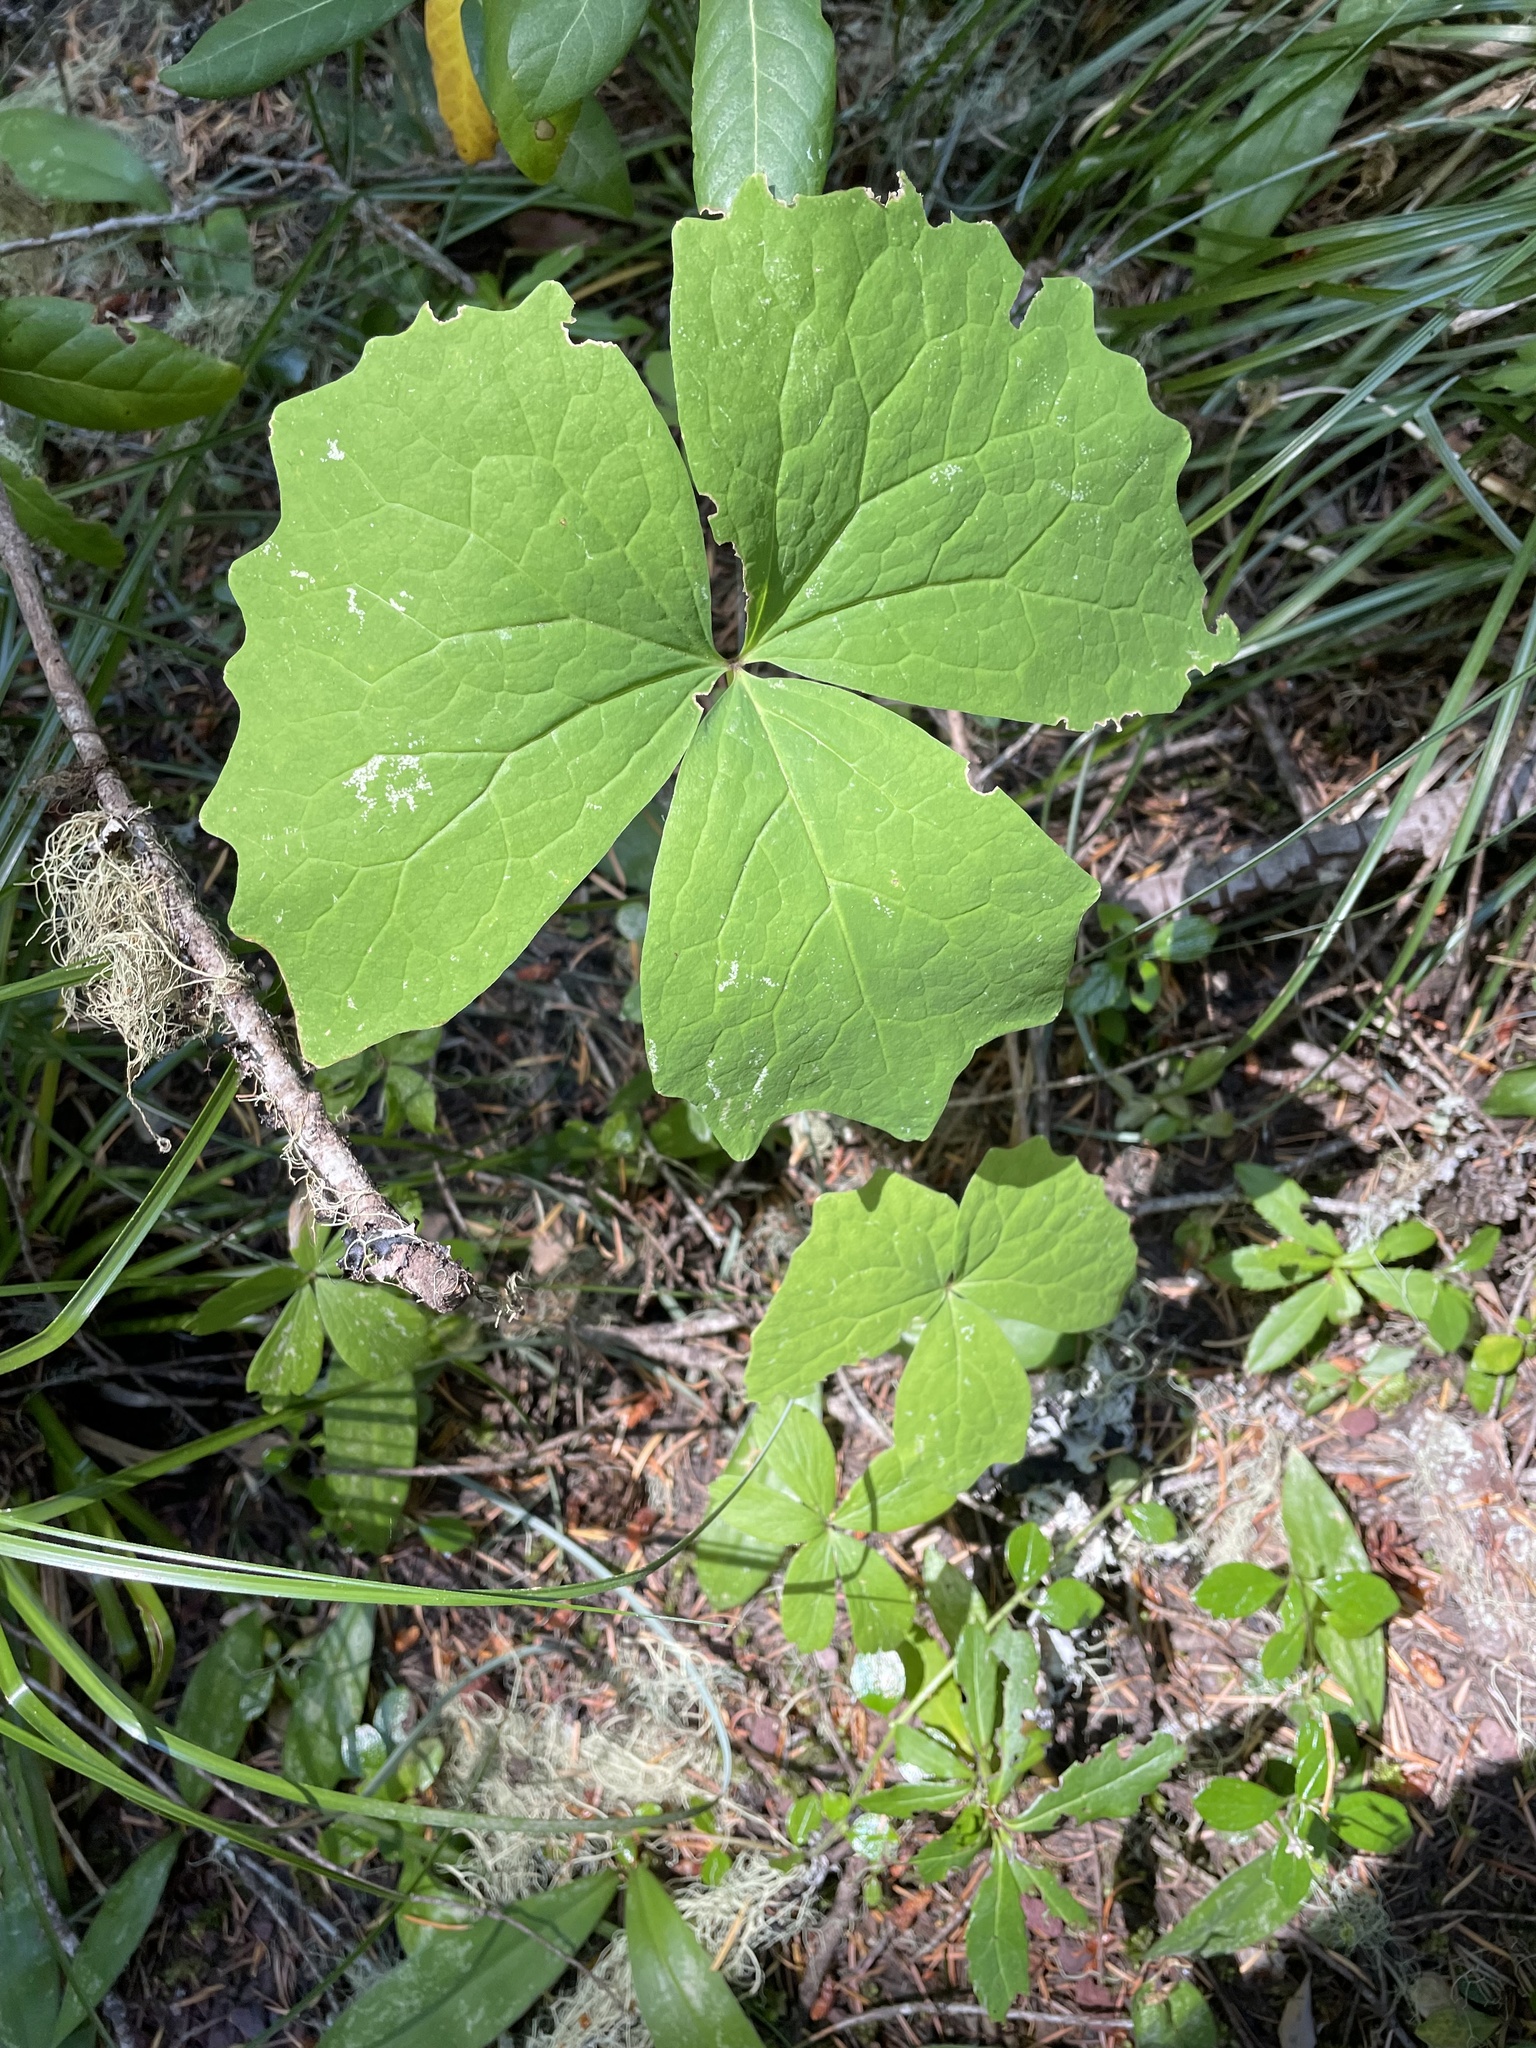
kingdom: Plantae
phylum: Tracheophyta
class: Magnoliopsida
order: Ranunculales
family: Berberidaceae
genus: Achlys
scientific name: Achlys triphylla
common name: Vanilla-leaf
